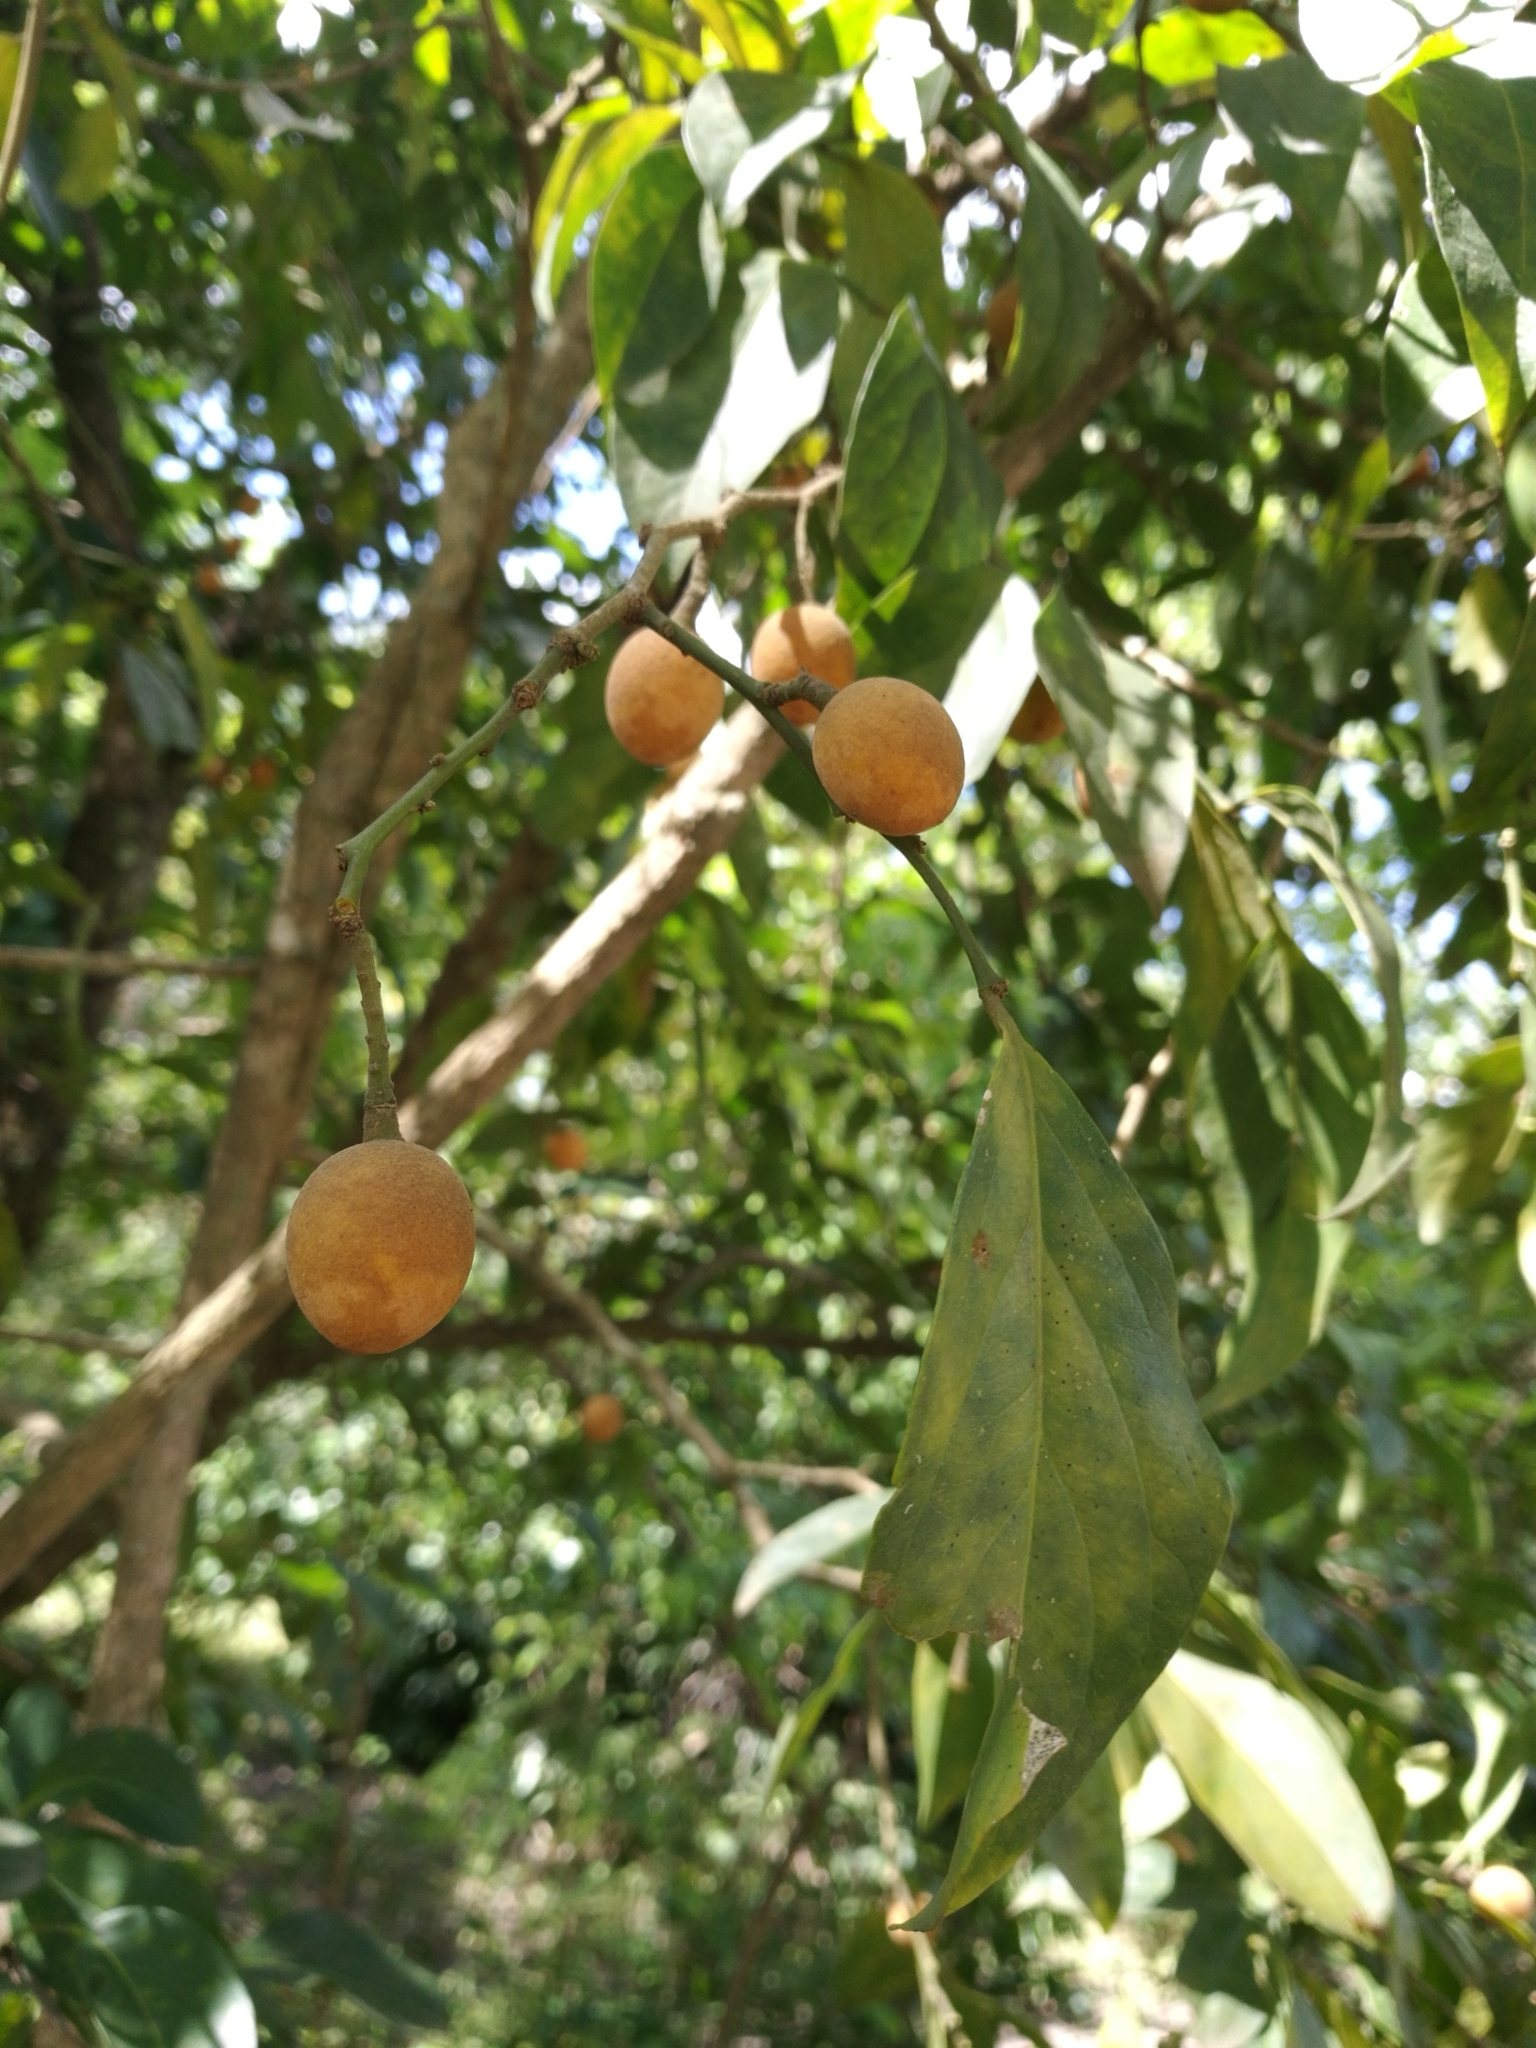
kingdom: Plantae
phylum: Tracheophyta
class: Magnoliopsida
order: Santalales
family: Opiliaceae
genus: Opilia
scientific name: Opilia amentacea
